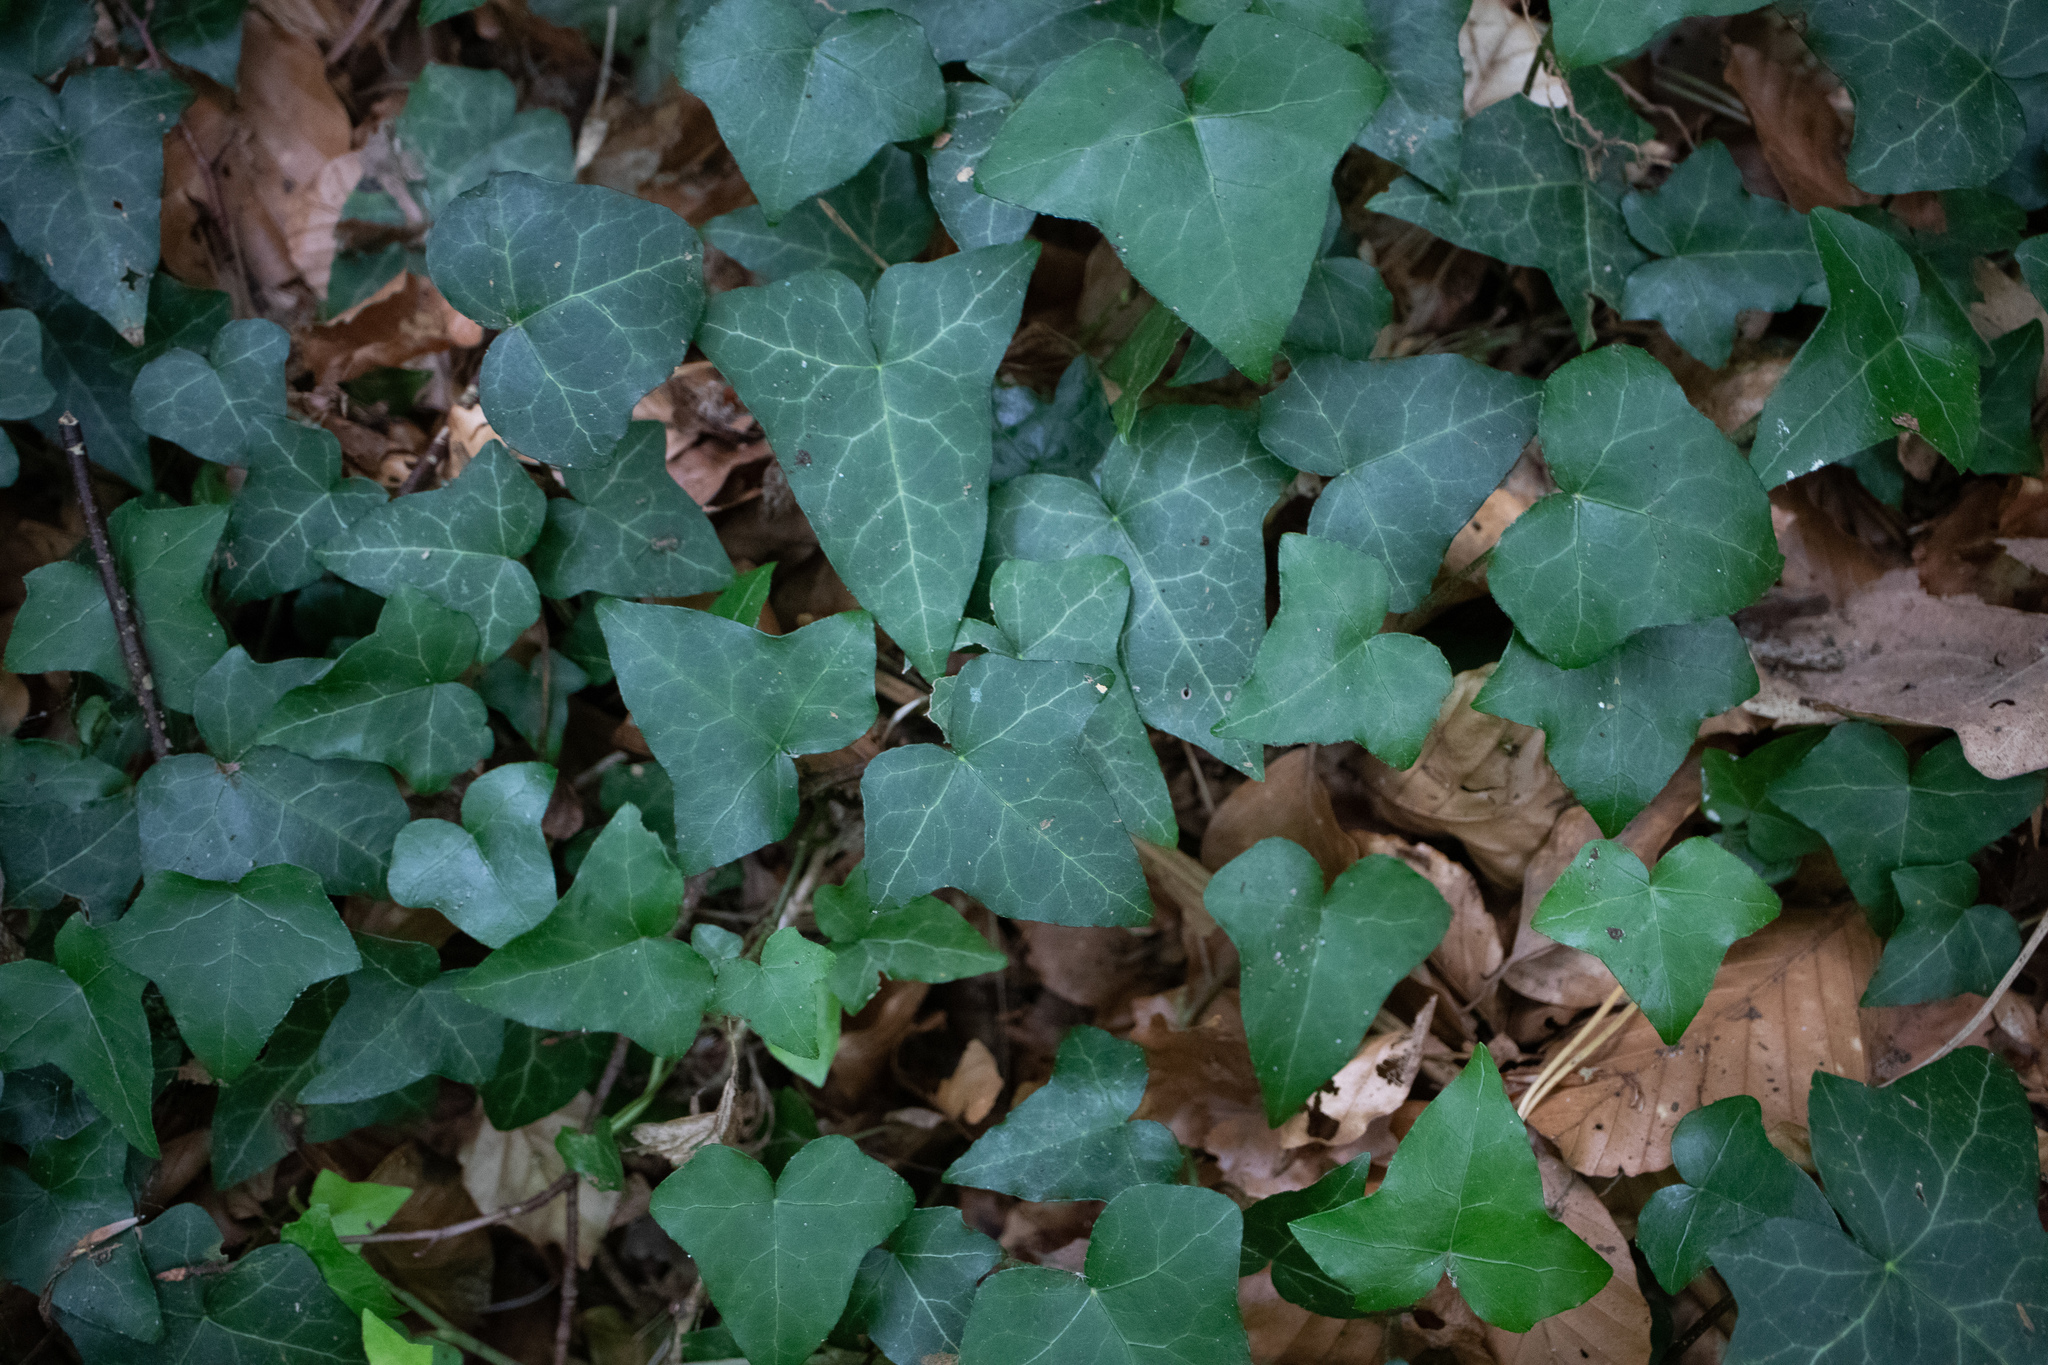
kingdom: Plantae
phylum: Tracheophyta
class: Magnoliopsida
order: Apiales
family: Araliaceae
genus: Hedera
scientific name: Hedera helix
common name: Ivy
